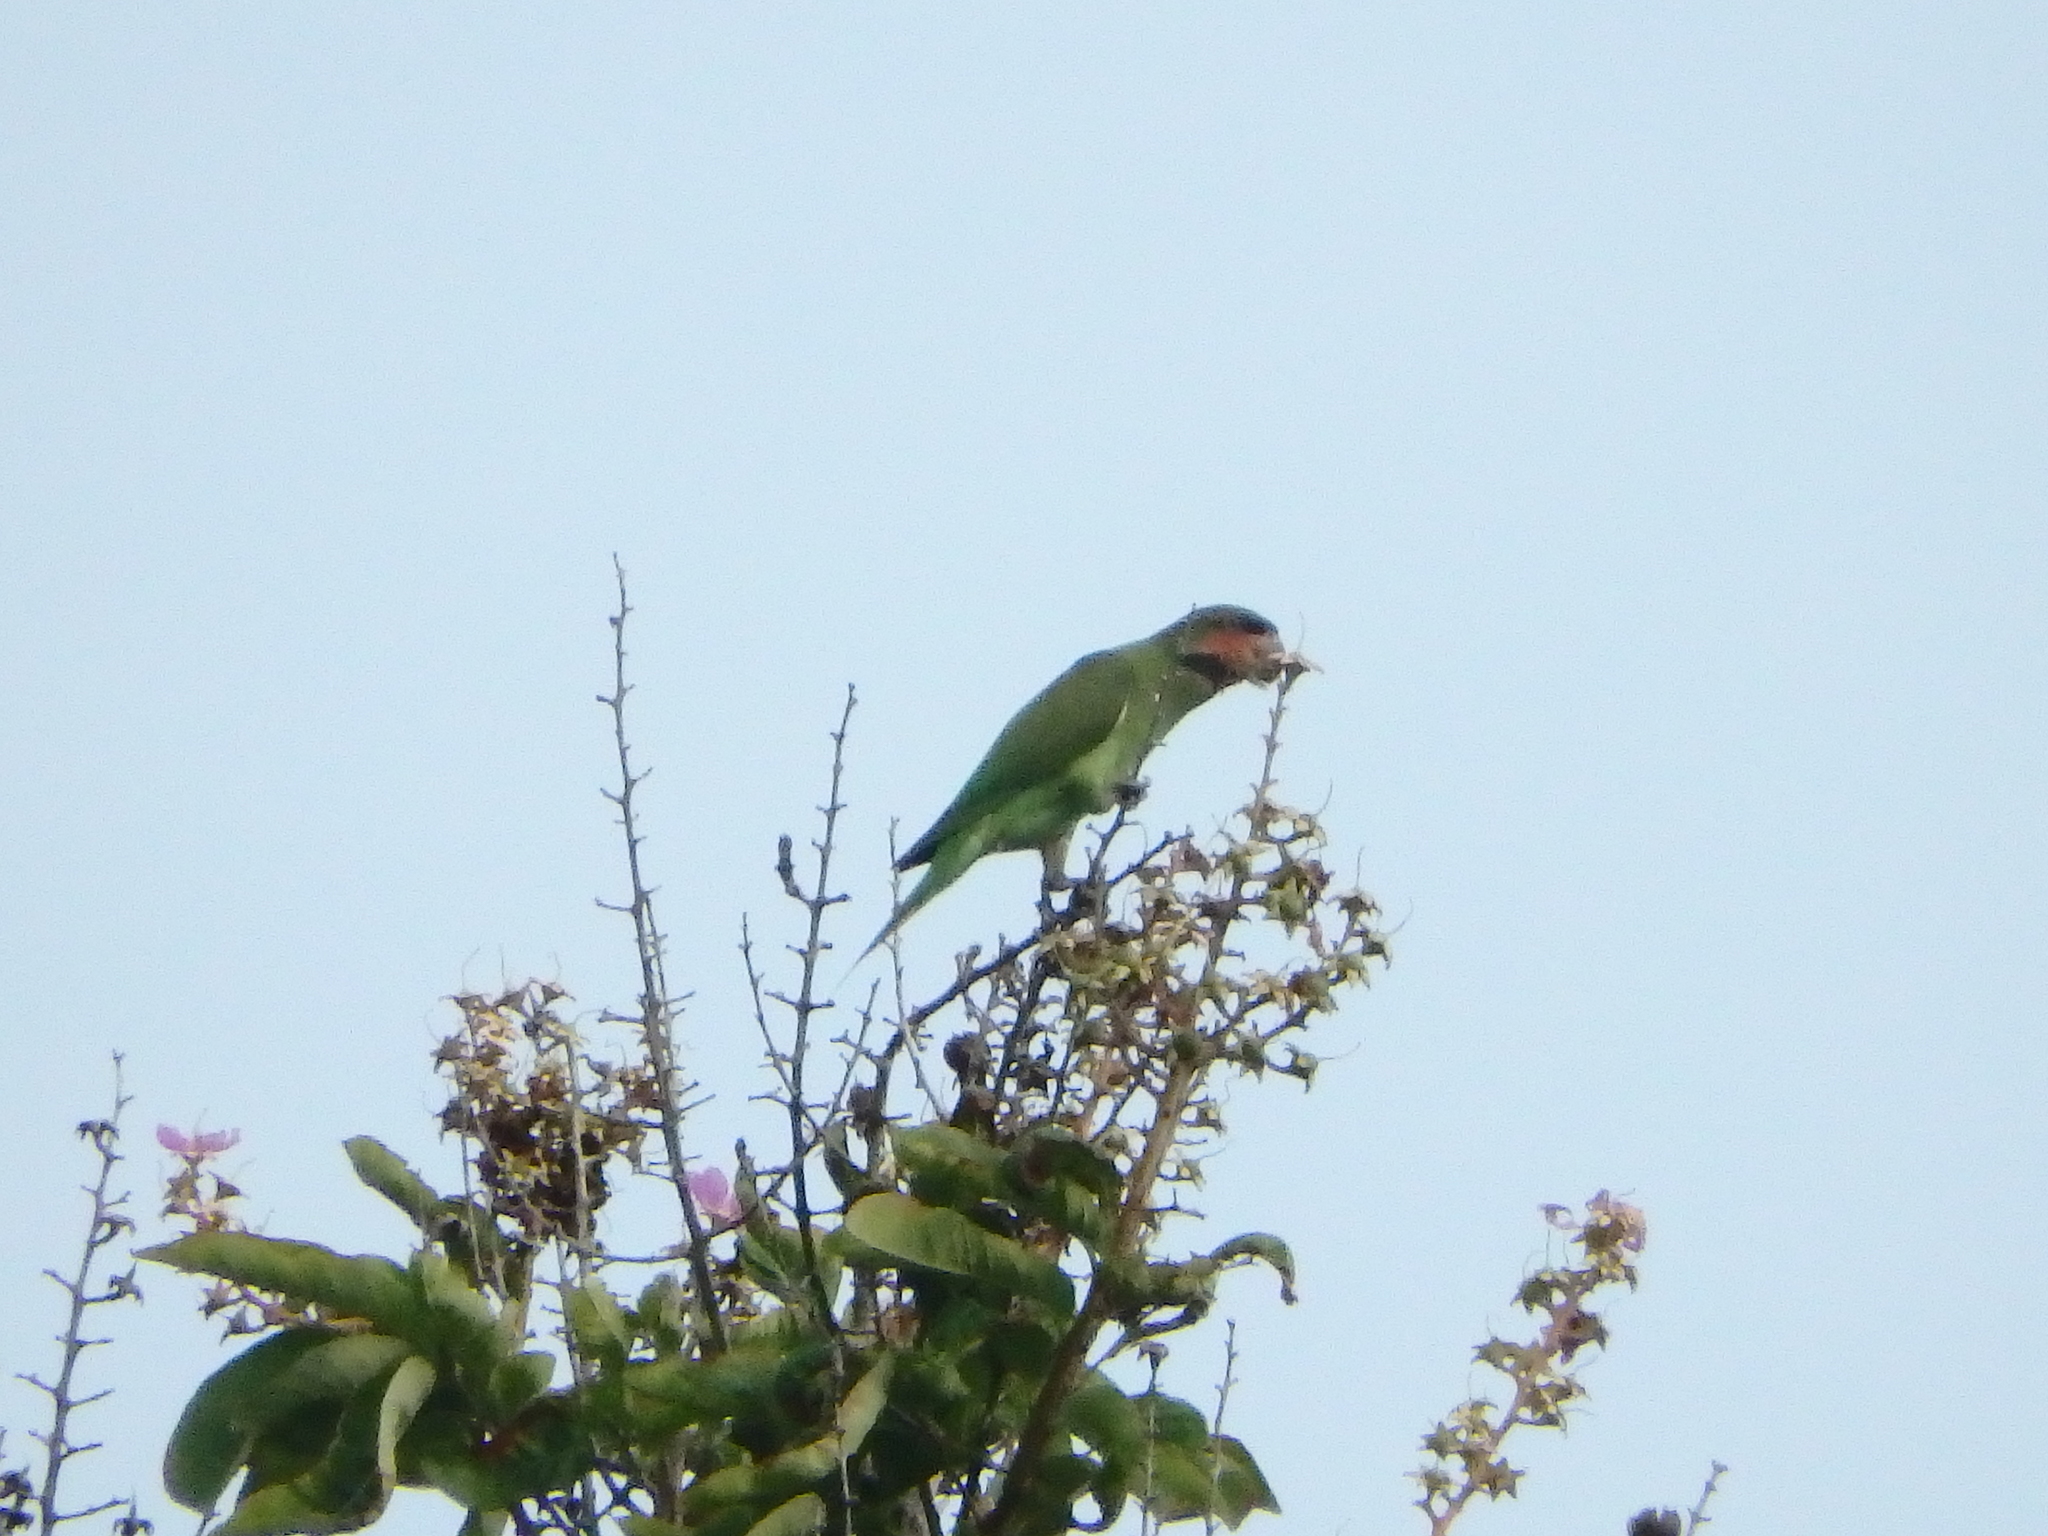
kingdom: Animalia
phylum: Chordata
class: Aves
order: Psittaciformes
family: Psittacidae
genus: Psittacula
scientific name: Psittacula longicauda
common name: Long-tailed parakeet
